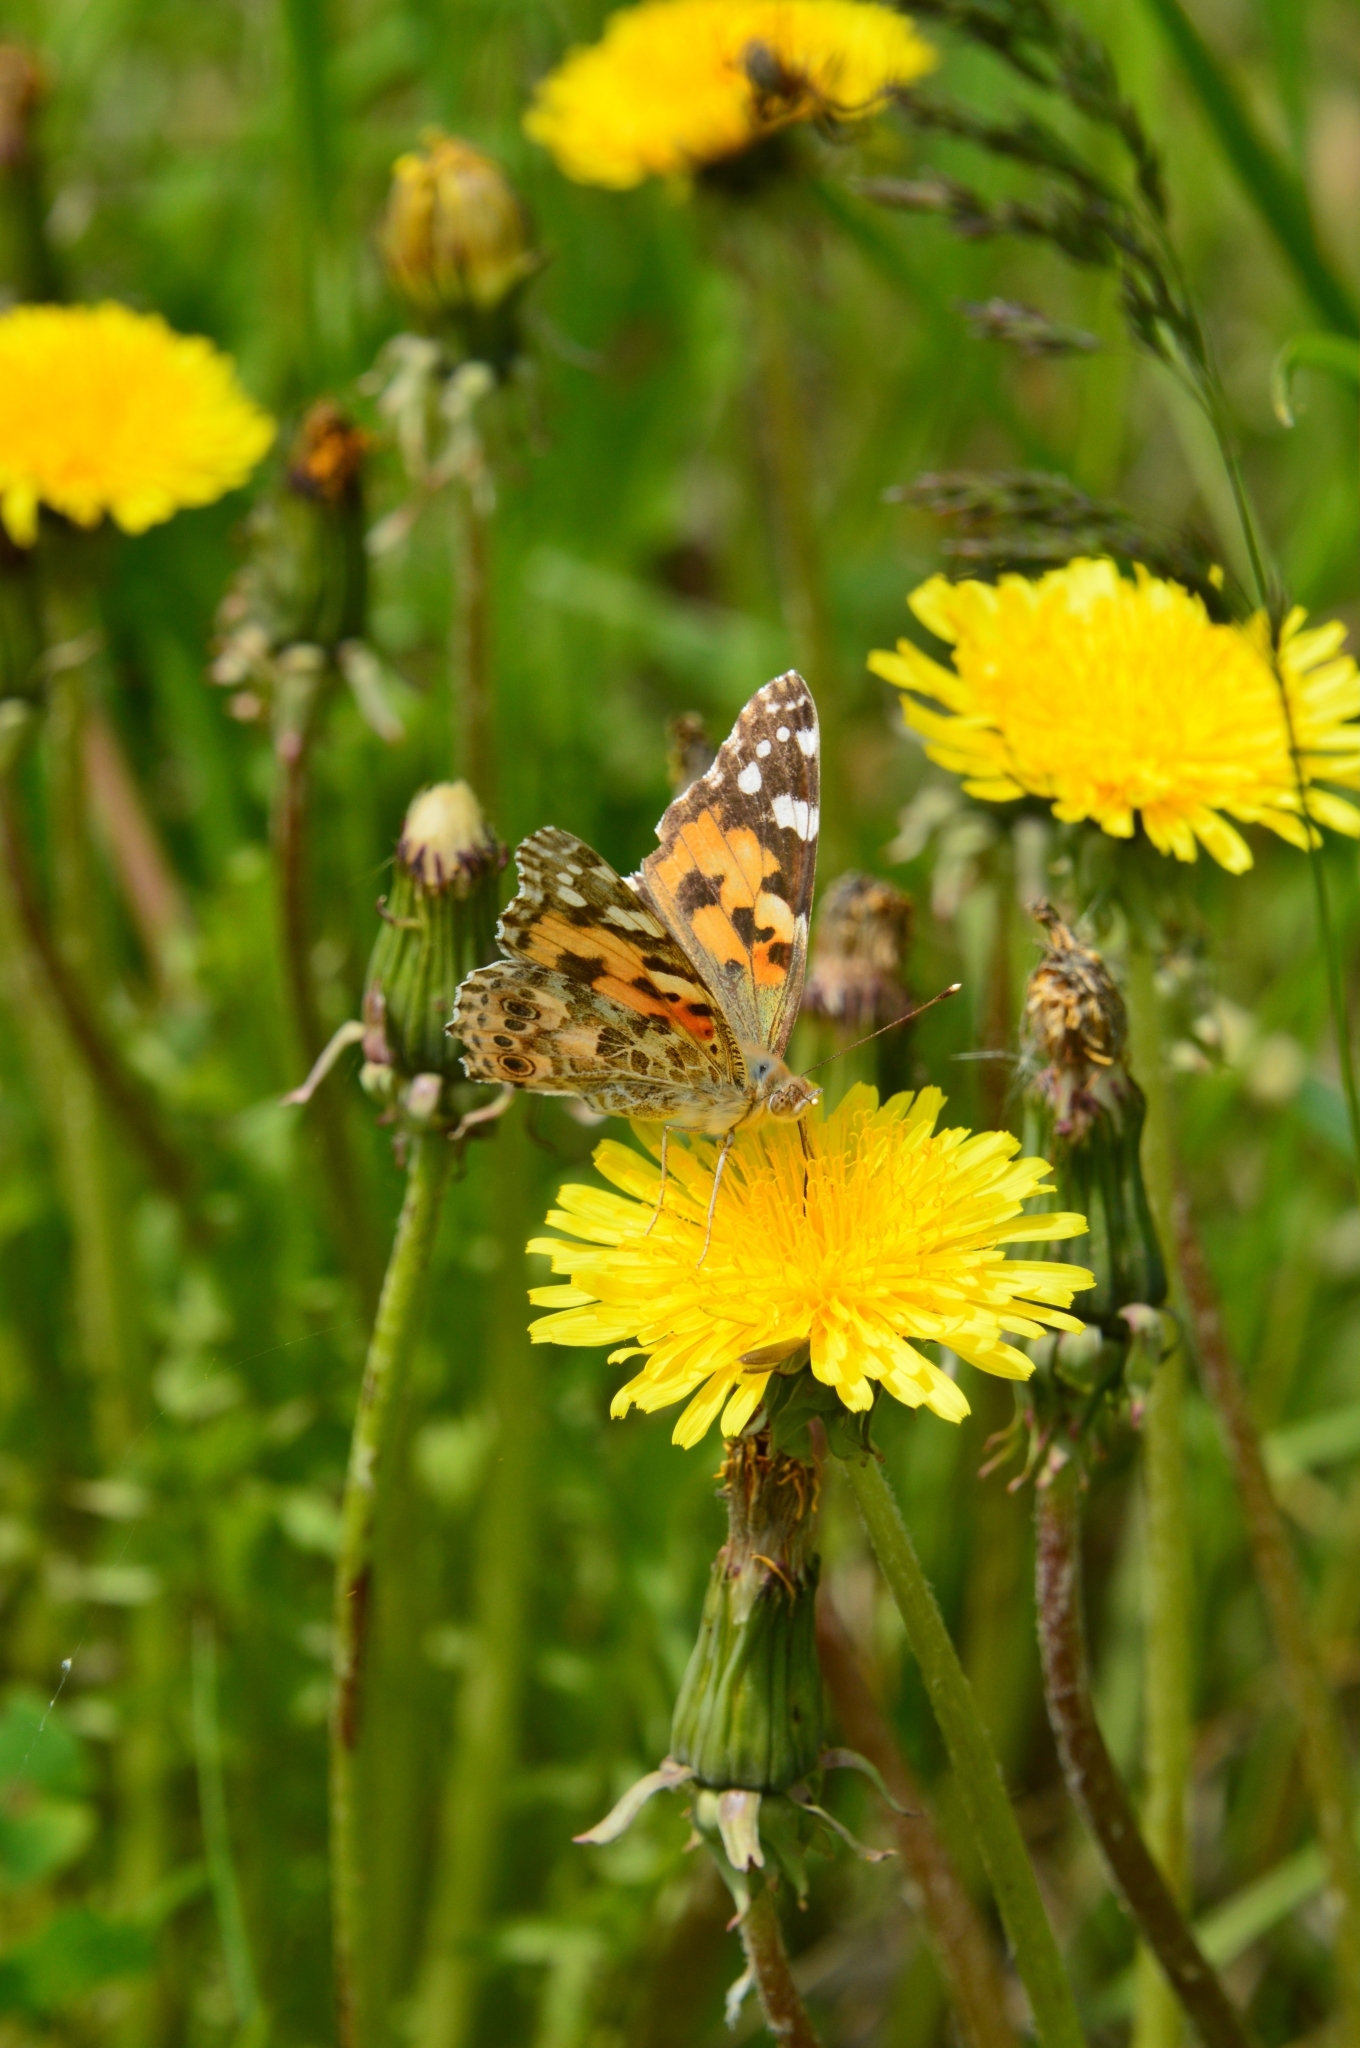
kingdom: Animalia
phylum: Arthropoda
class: Insecta
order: Lepidoptera
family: Nymphalidae
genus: Vanessa
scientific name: Vanessa cardui
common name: Painted lady
